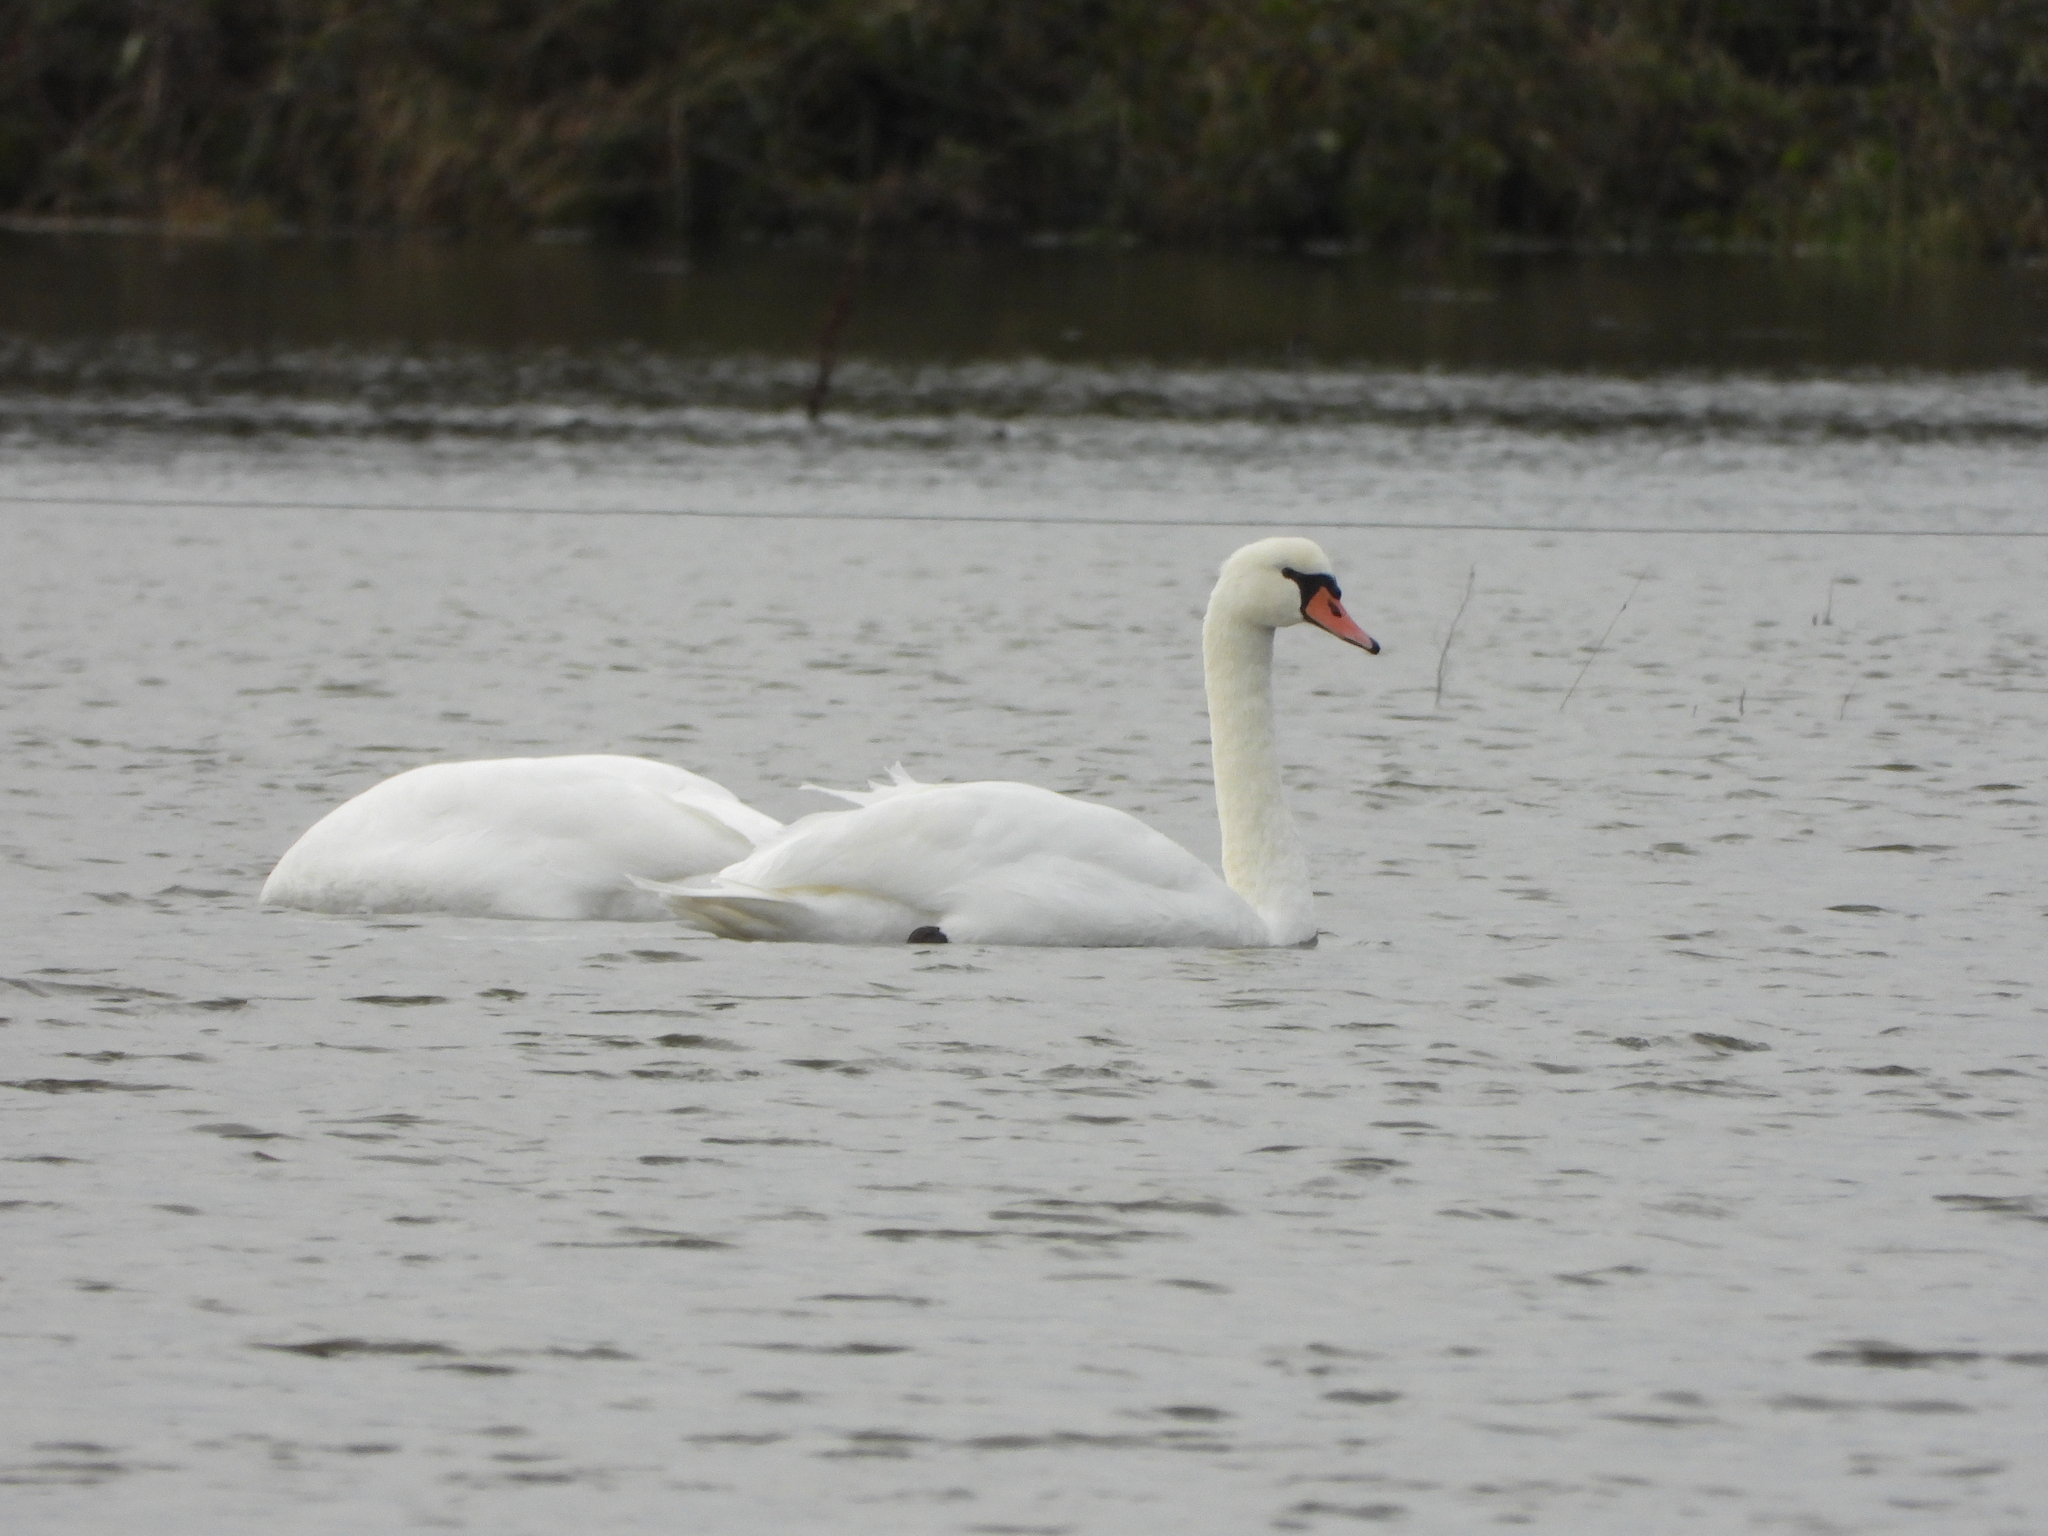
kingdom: Animalia
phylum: Chordata
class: Aves
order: Anseriformes
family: Anatidae
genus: Cygnus
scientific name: Cygnus olor
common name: Mute swan
